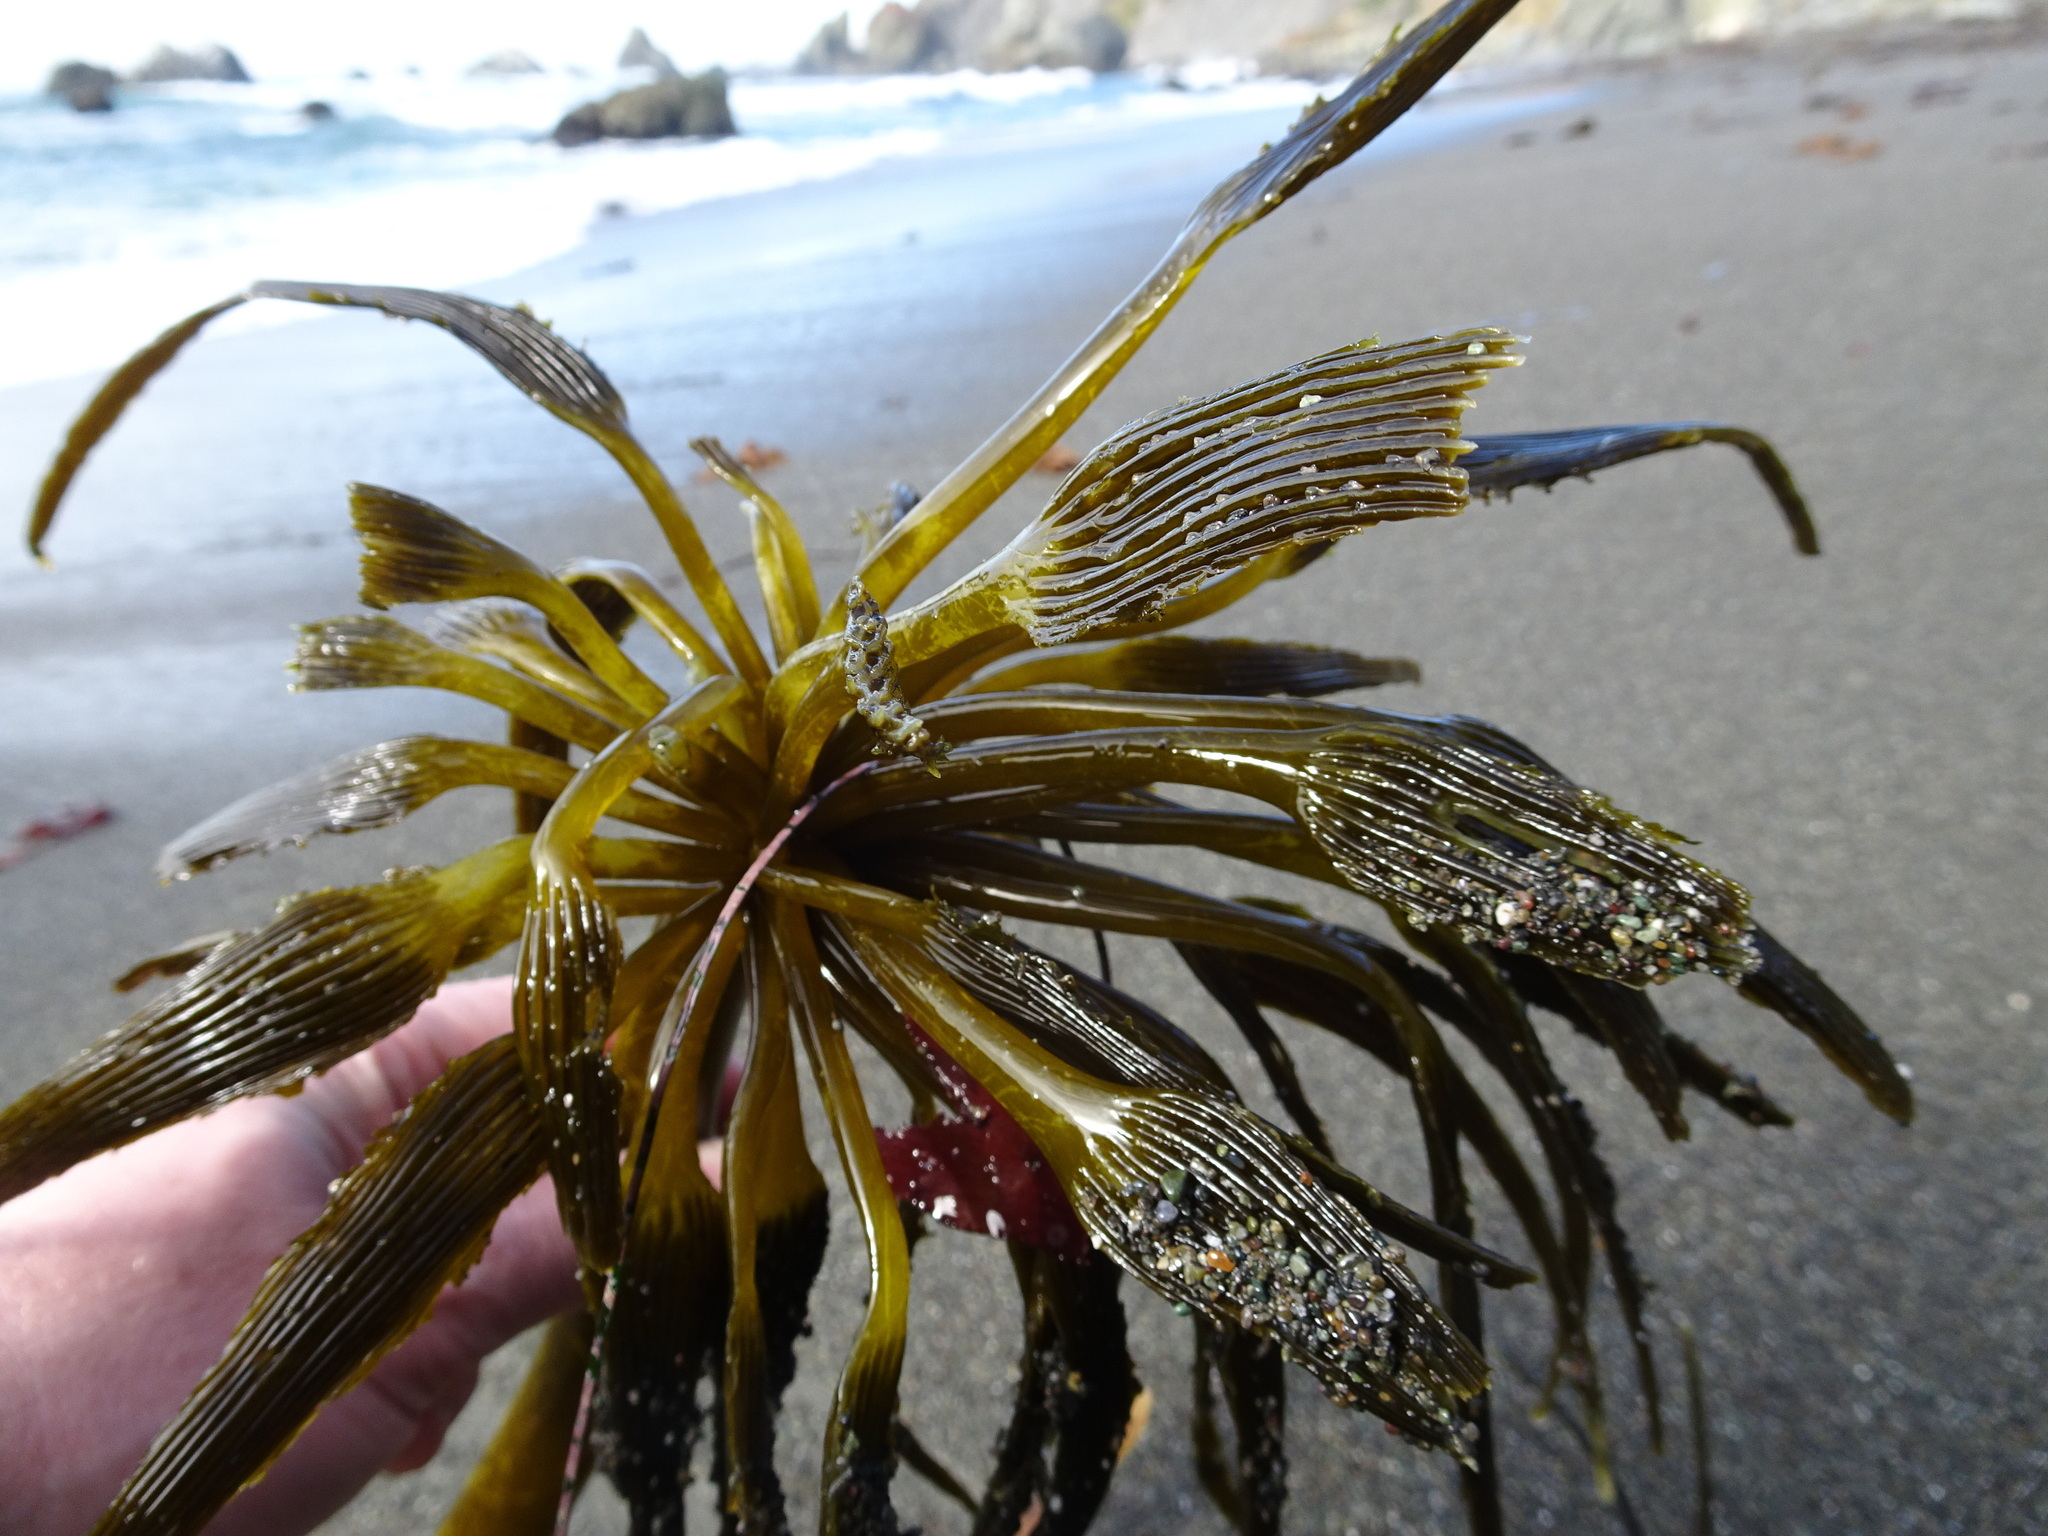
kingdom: Chromista
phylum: Ochrophyta
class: Phaeophyceae
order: Laminariales
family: Laminariaceae
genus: Postelsia
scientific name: Postelsia palmiformis
